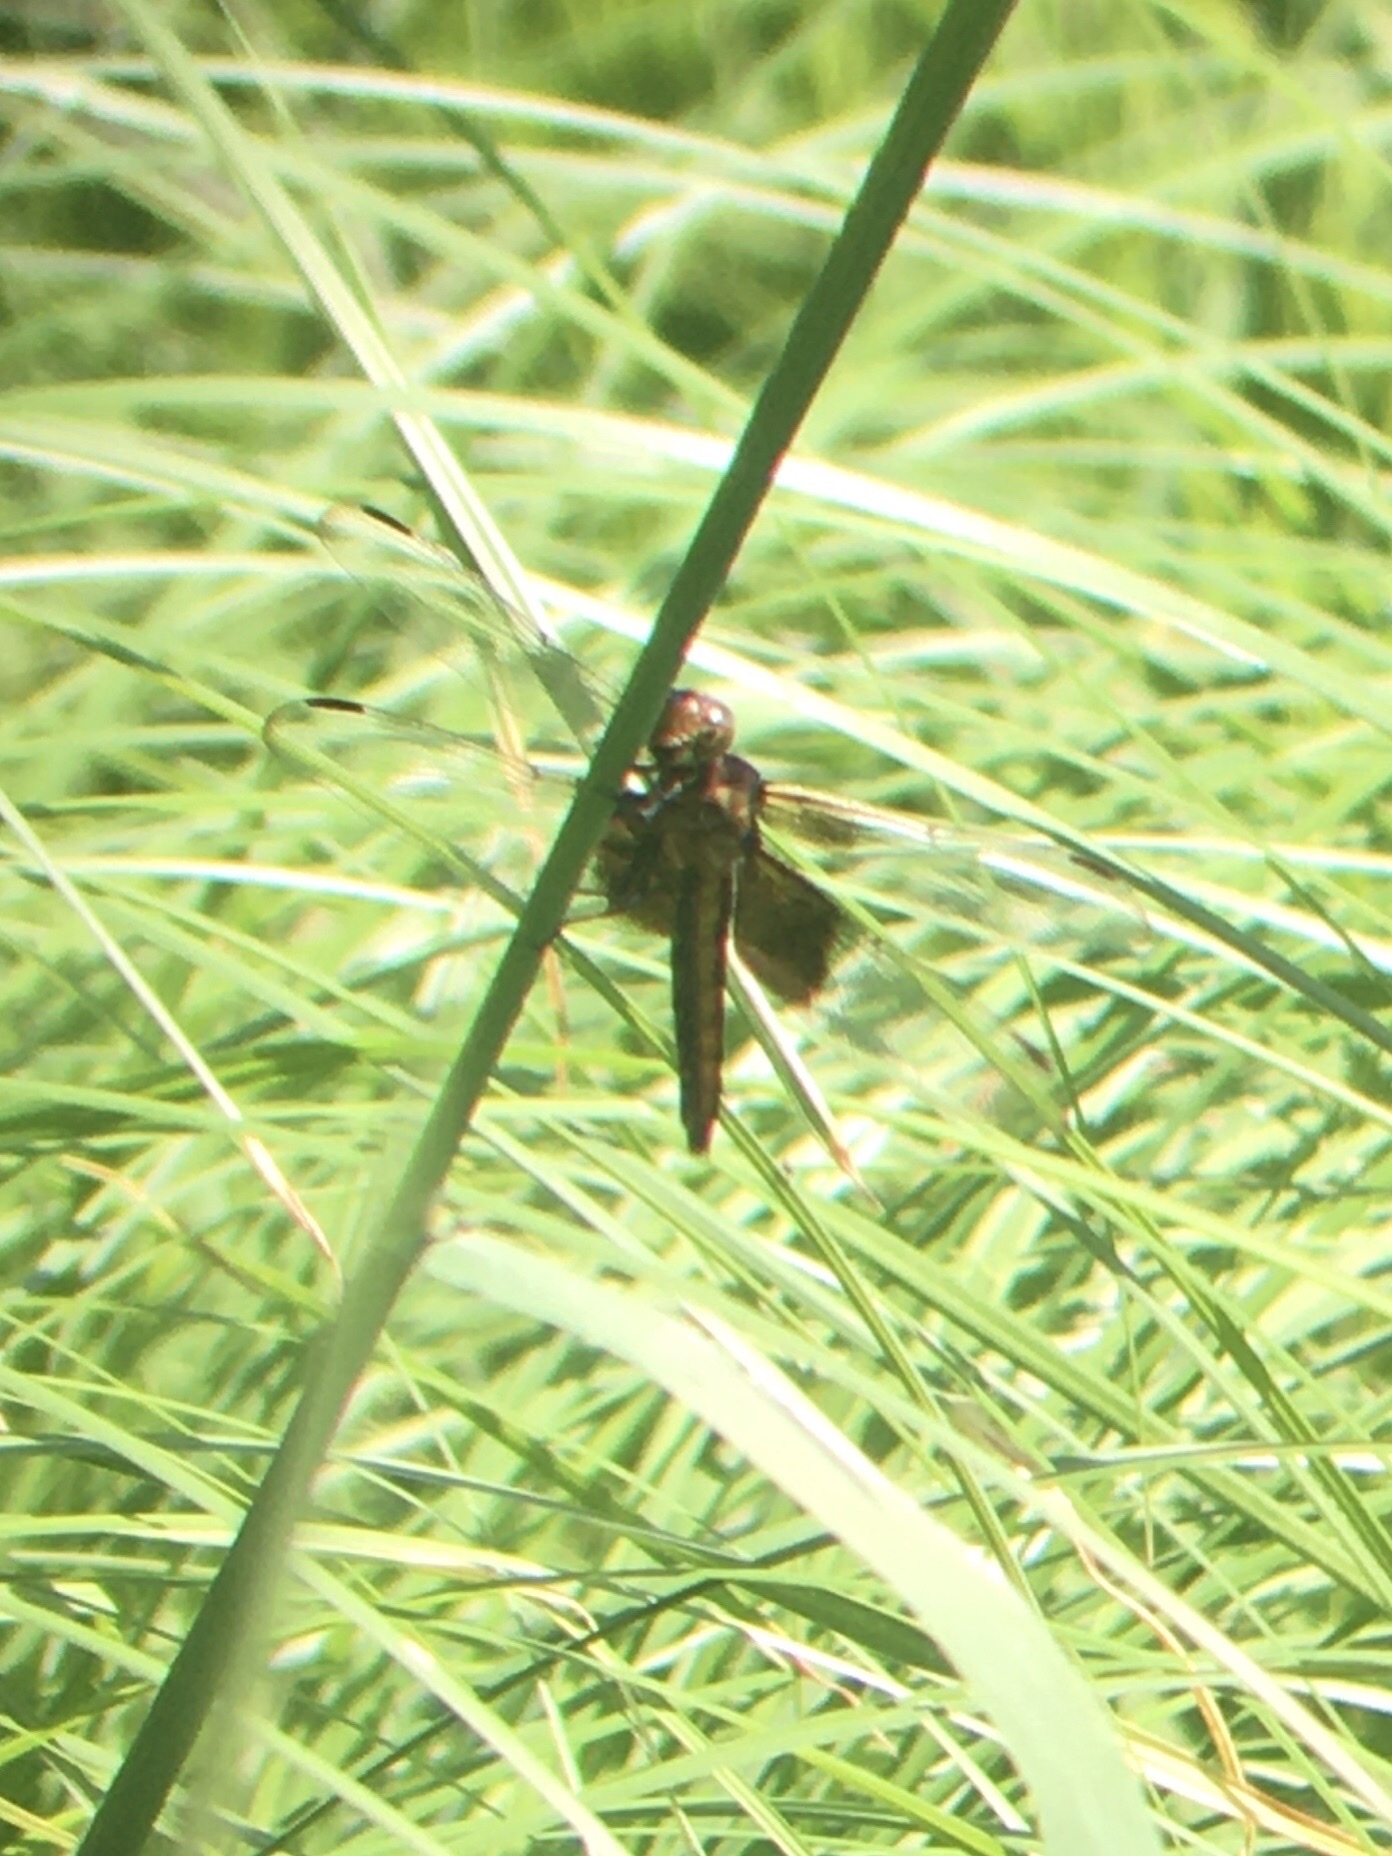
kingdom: Animalia
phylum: Arthropoda
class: Insecta
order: Odonata
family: Libellulidae
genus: Libellula
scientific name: Libellula luctuosa
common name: Widow skimmer
